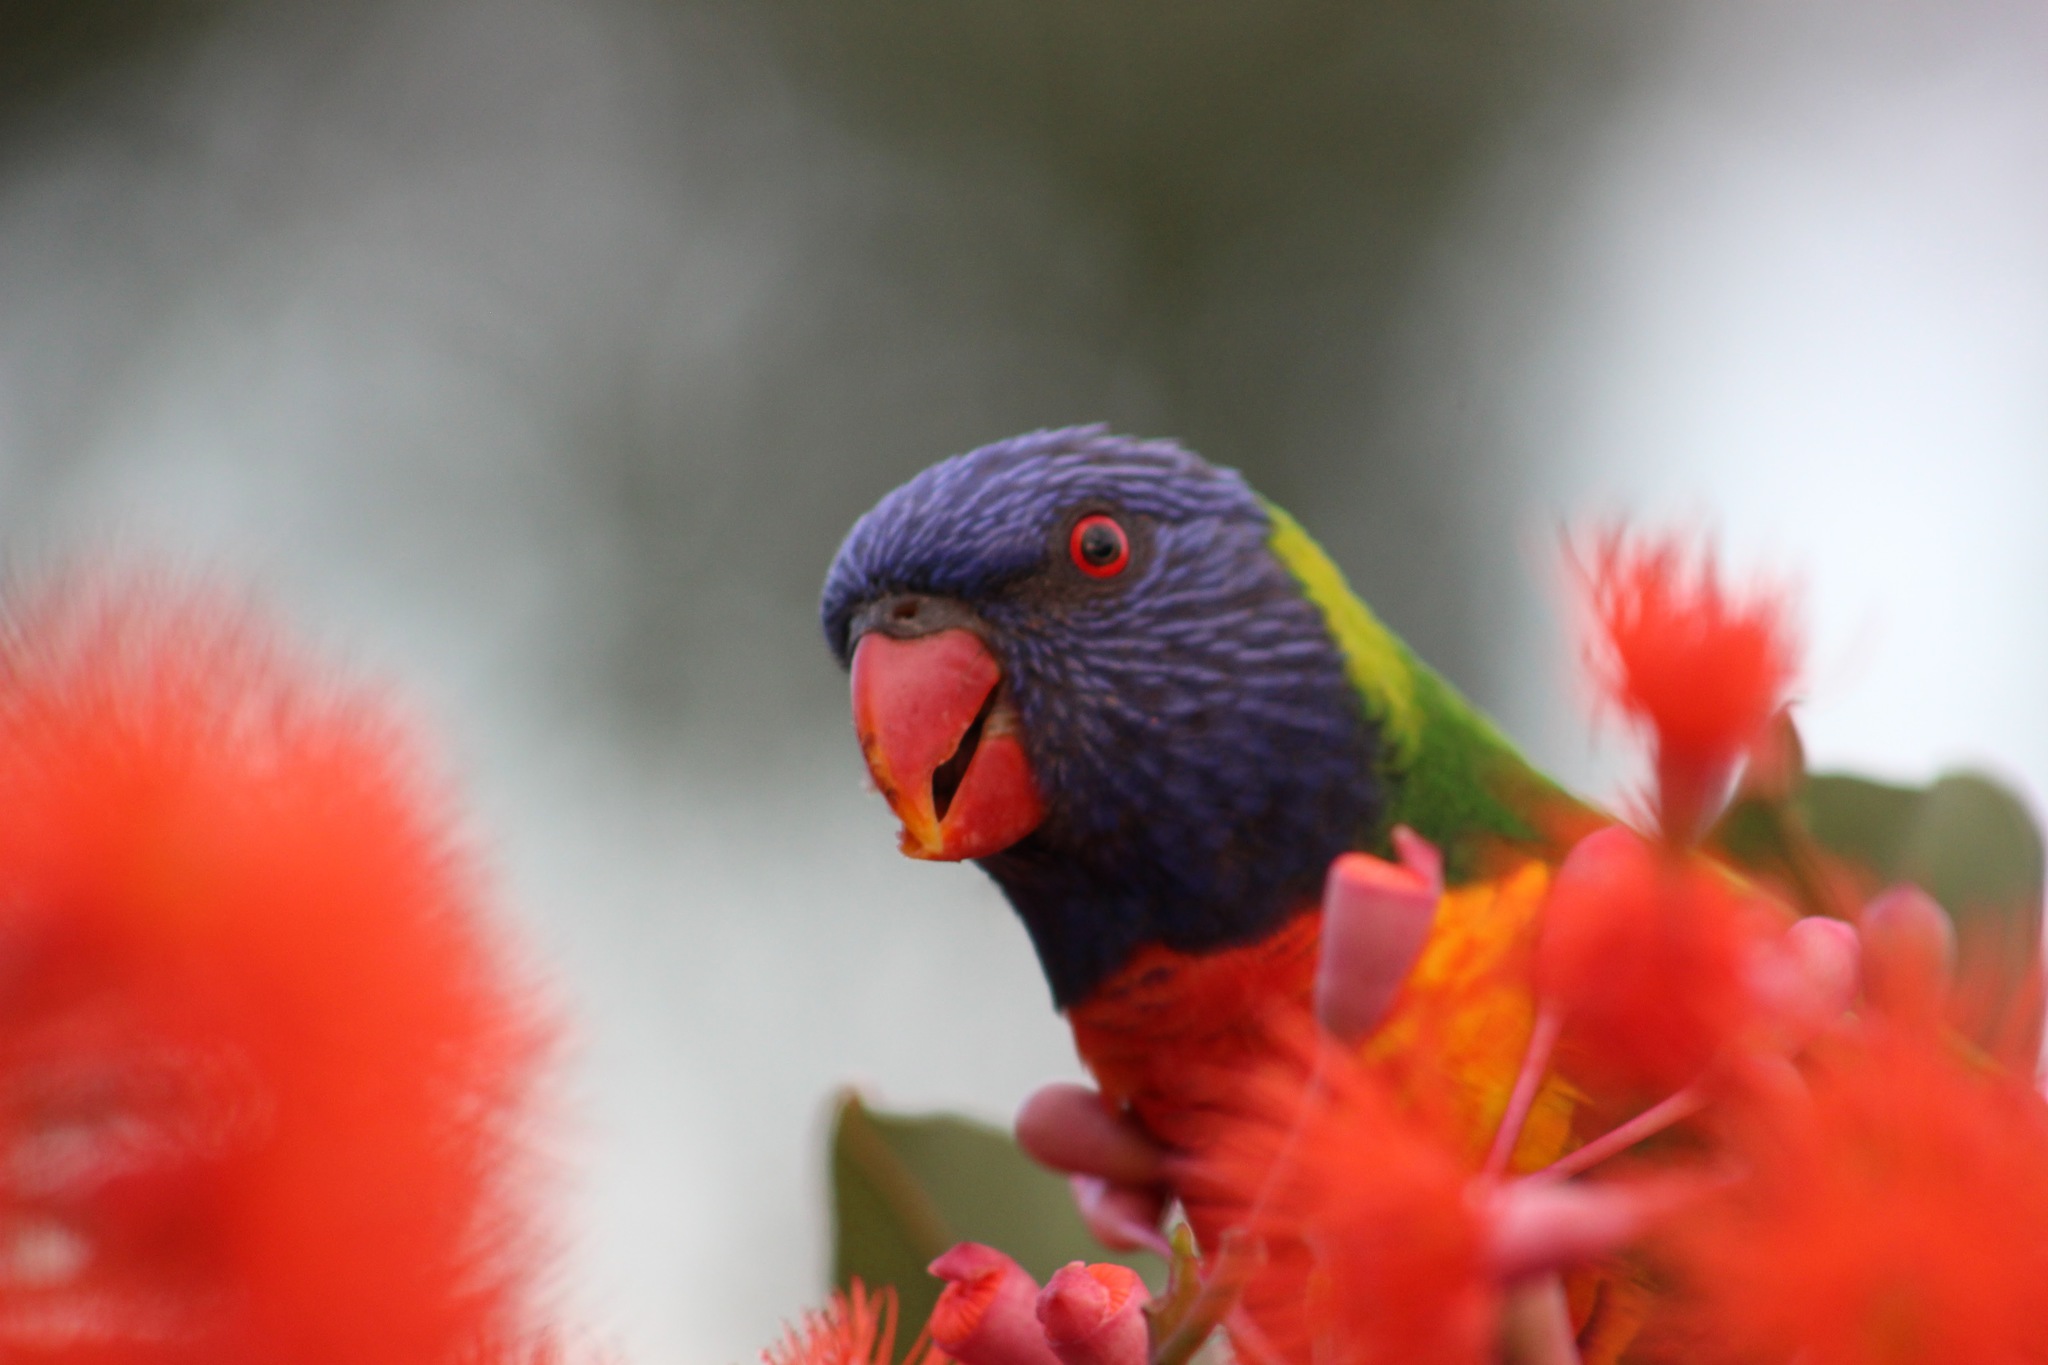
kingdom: Animalia
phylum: Chordata
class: Aves
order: Psittaciformes
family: Psittacidae
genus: Trichoglossus
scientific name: Trichoglossus haematodus
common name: Coconut lorikeet
